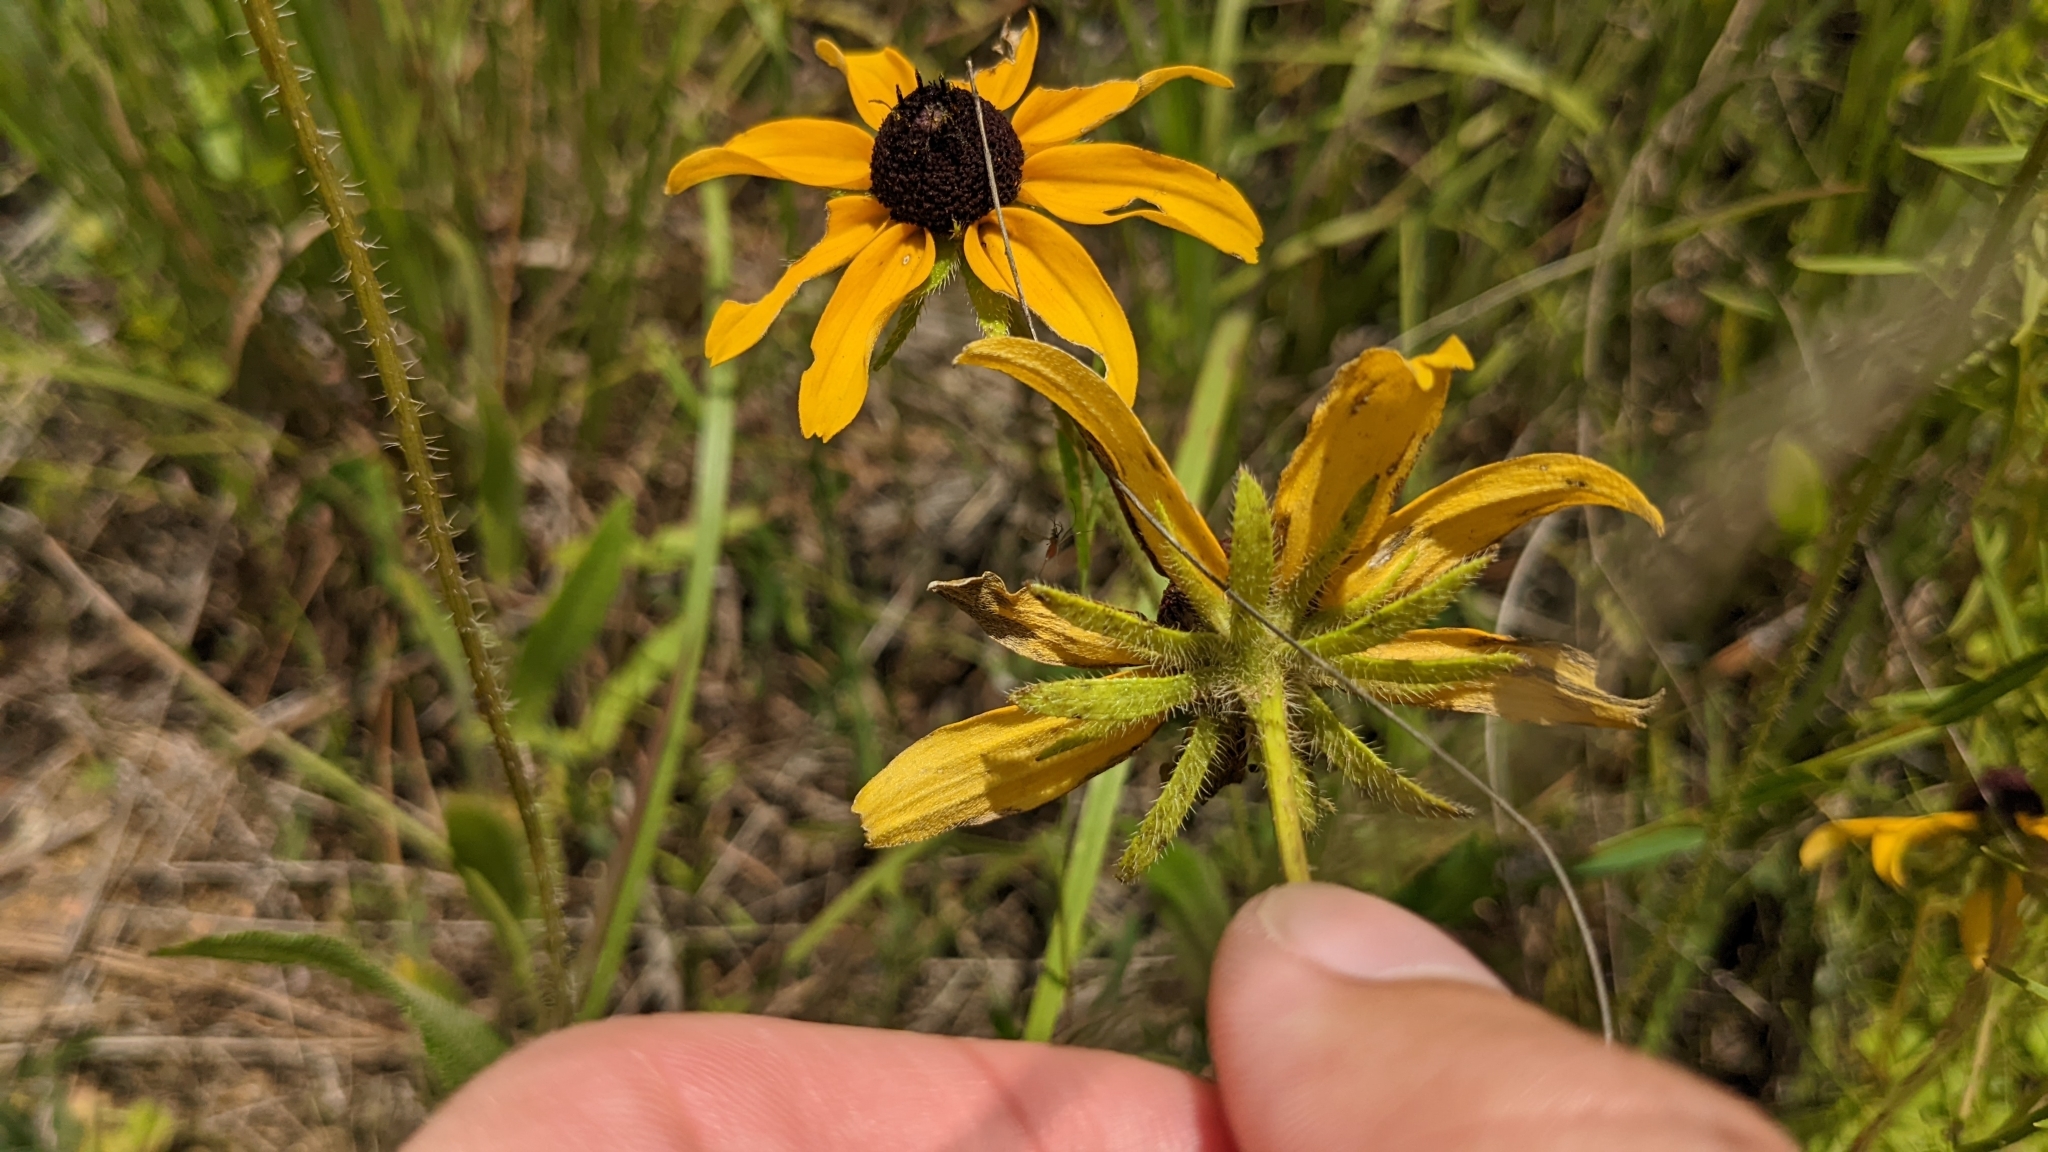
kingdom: Plantae
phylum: Tracheophyta
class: Magnoliopsida
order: Asterales
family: Asteraceae
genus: Rudbeckia
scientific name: Rudbeckia hirta
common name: Black-eyed-susan
